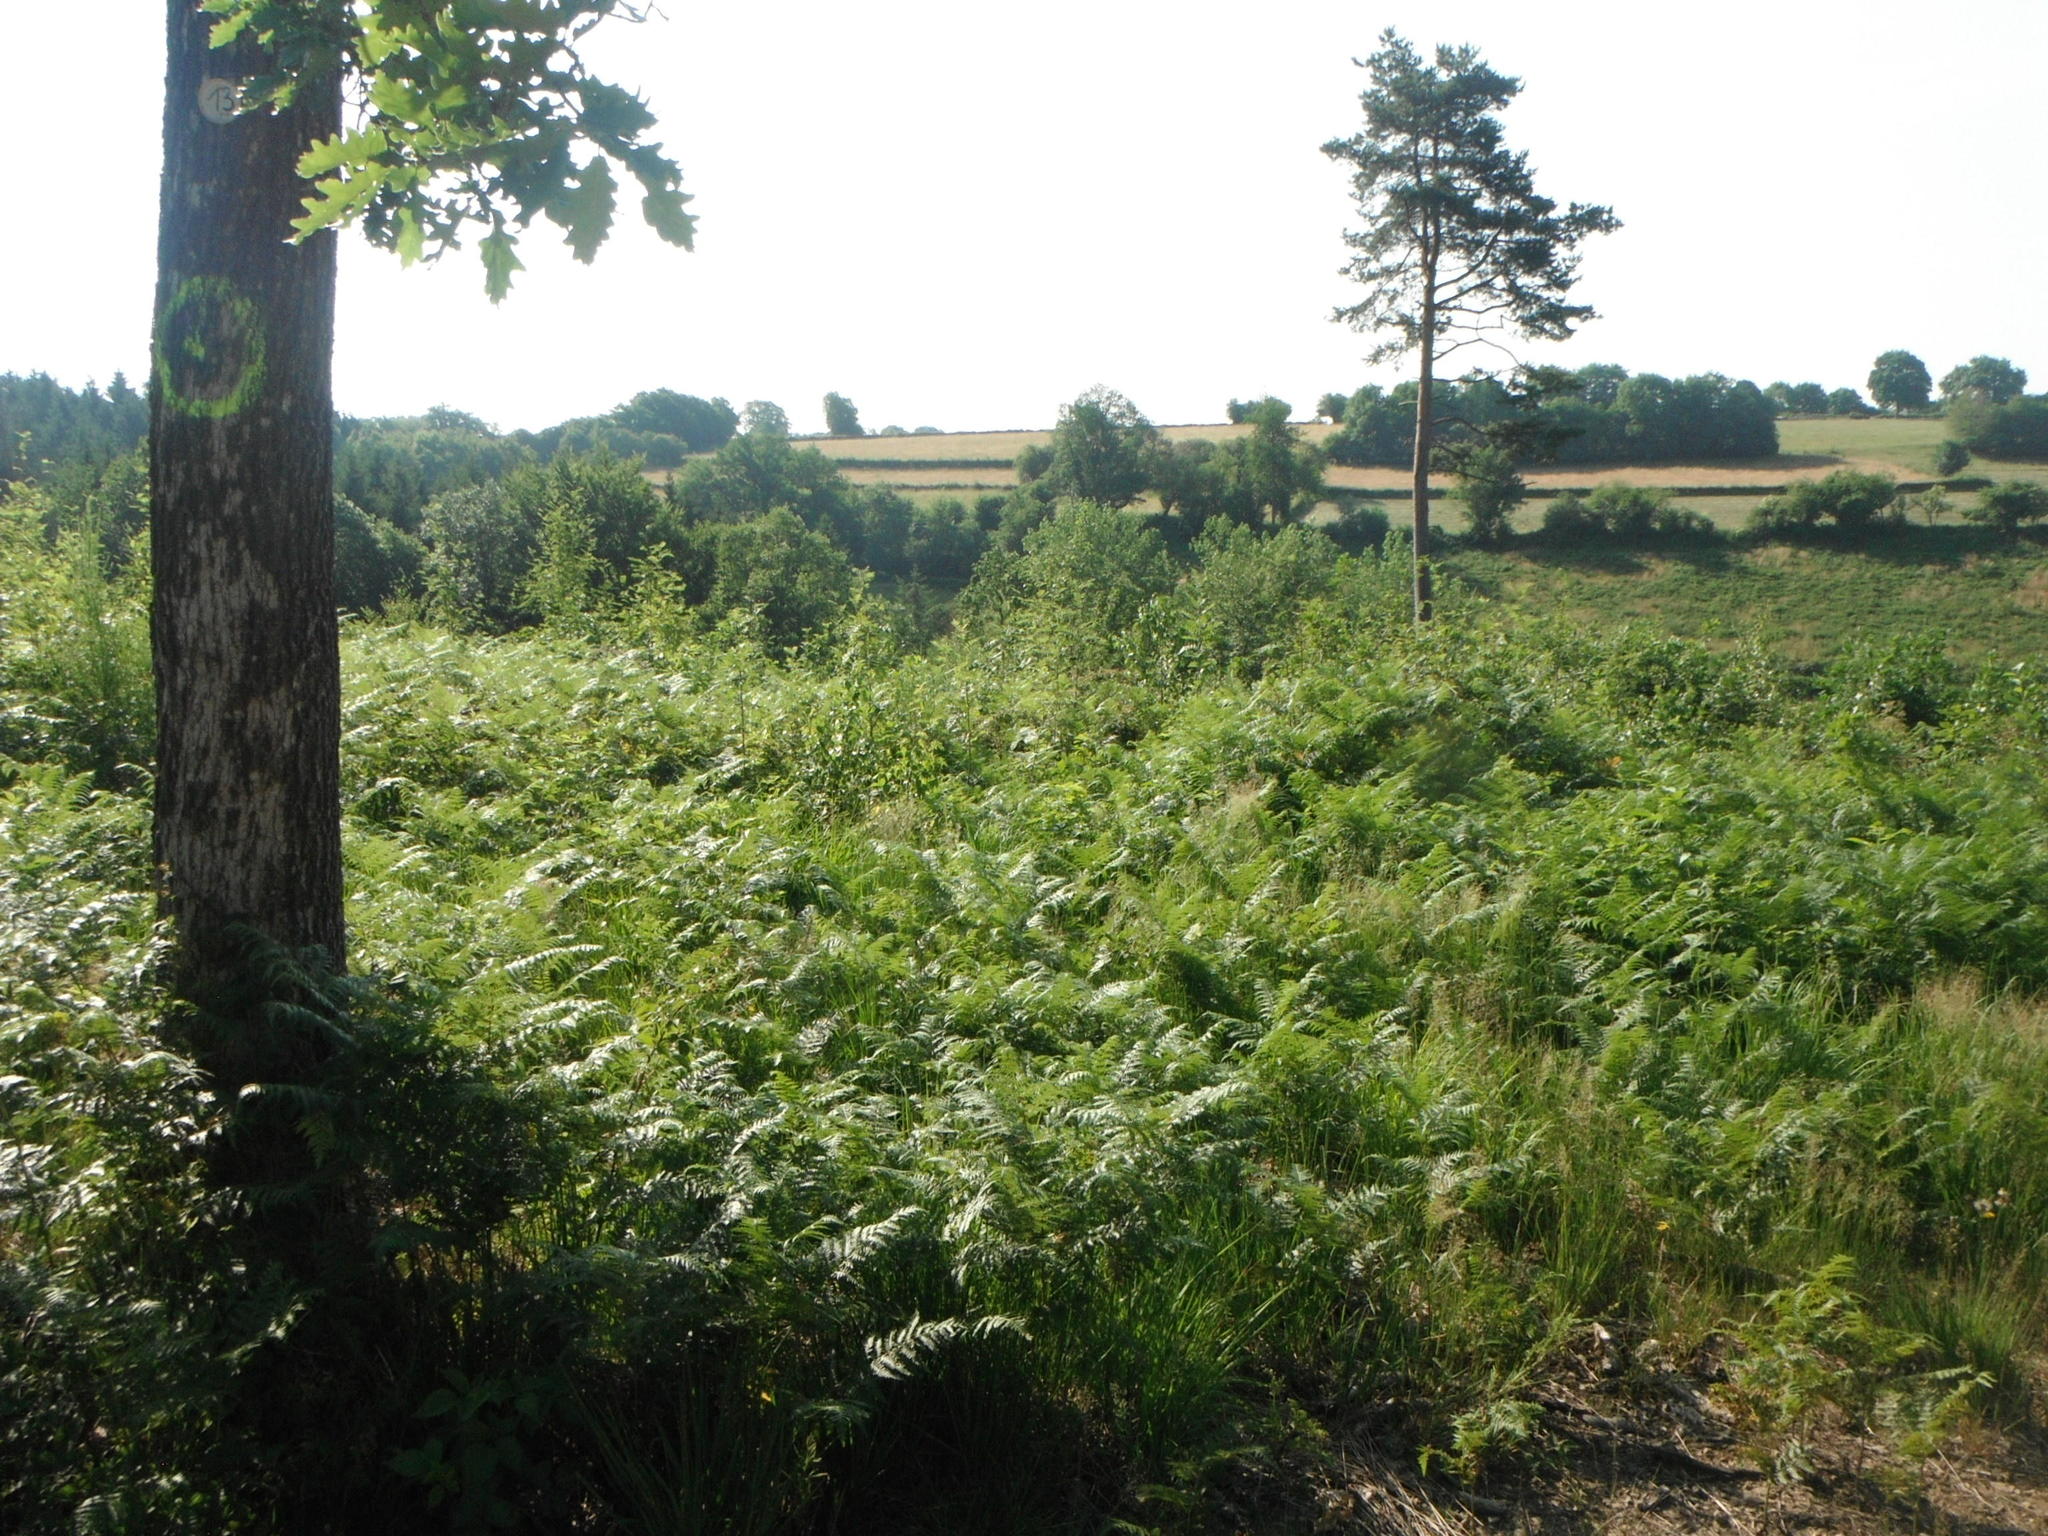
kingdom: Plantae
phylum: Tracheophyta
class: Polypodiopsida
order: Polypodiales
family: Dennstaedtiaceae
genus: Pteridium
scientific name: Pteridium aquilinum
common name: Bracken
